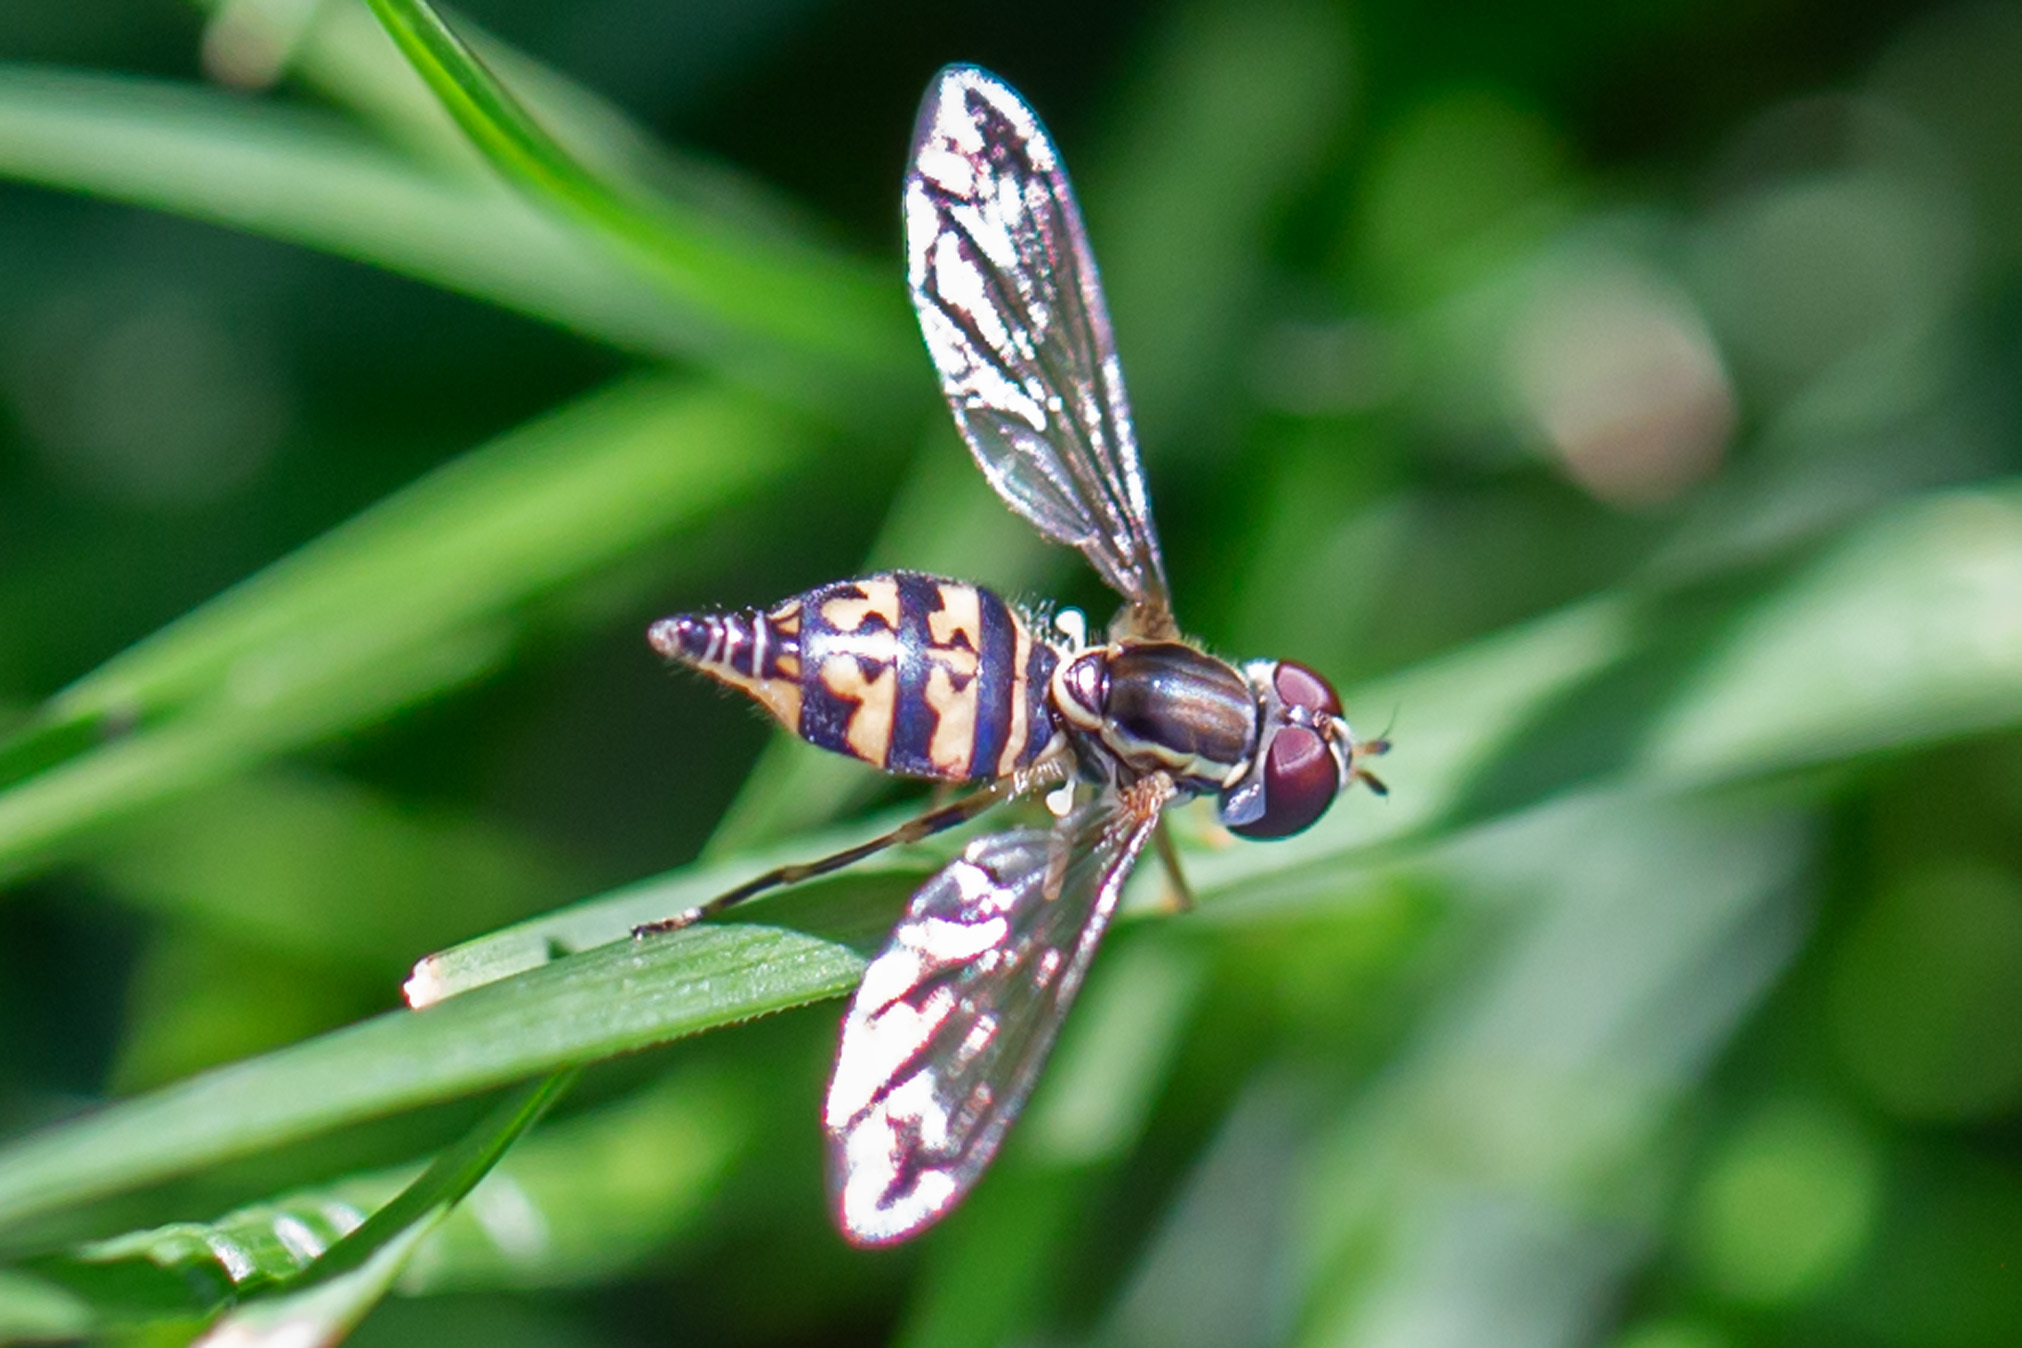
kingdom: Animalia
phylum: Arthropoda
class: Insecta
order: Diptera
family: Syrphidae
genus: Toxomerus
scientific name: Toxomerus geminatus
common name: Eastern calligrapher
